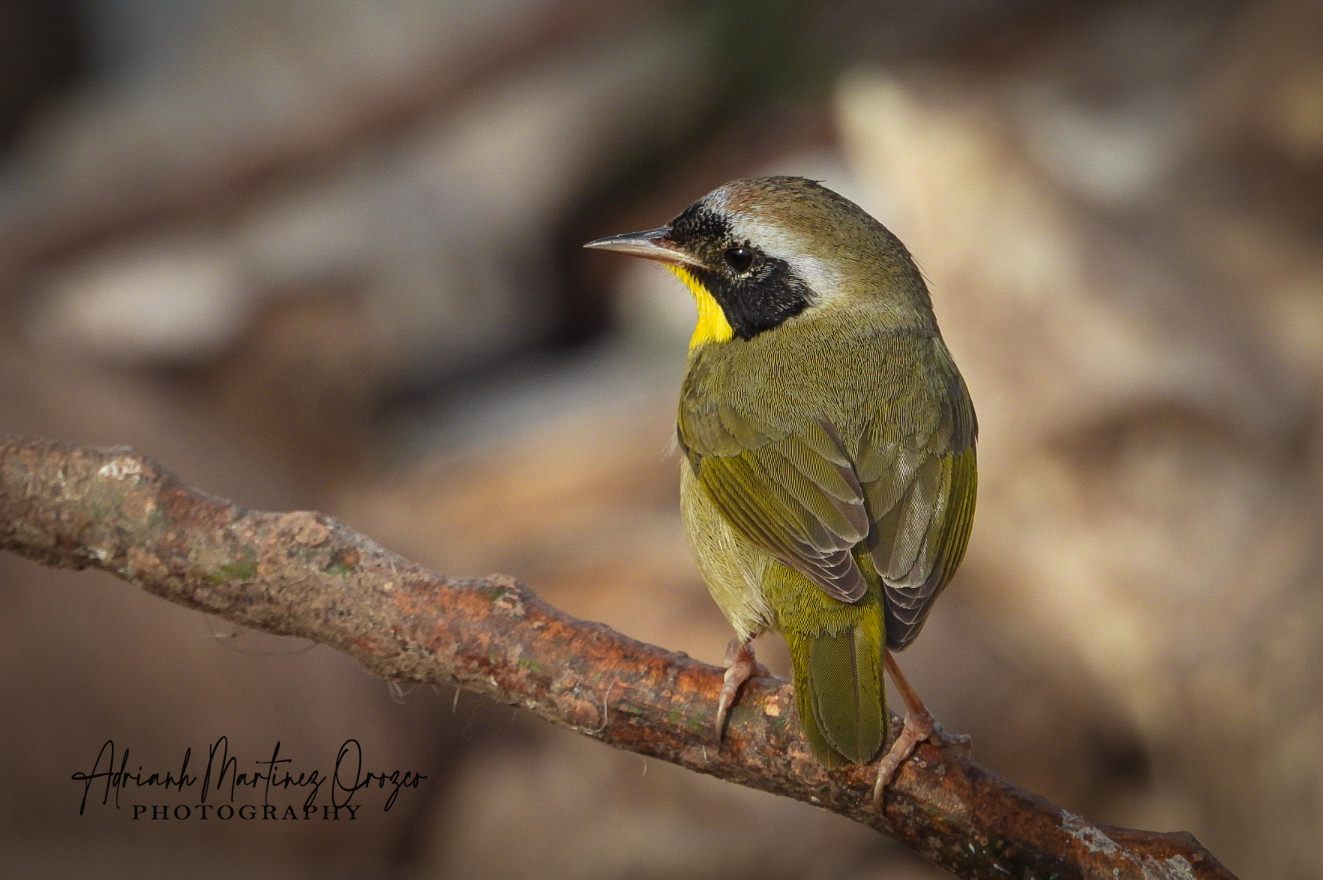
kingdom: Animalia
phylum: Chordata
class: Aves
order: Passeriformes
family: Parulidae
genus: Geothlypis
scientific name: Geothlypis trichas
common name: Common yellowthroat
